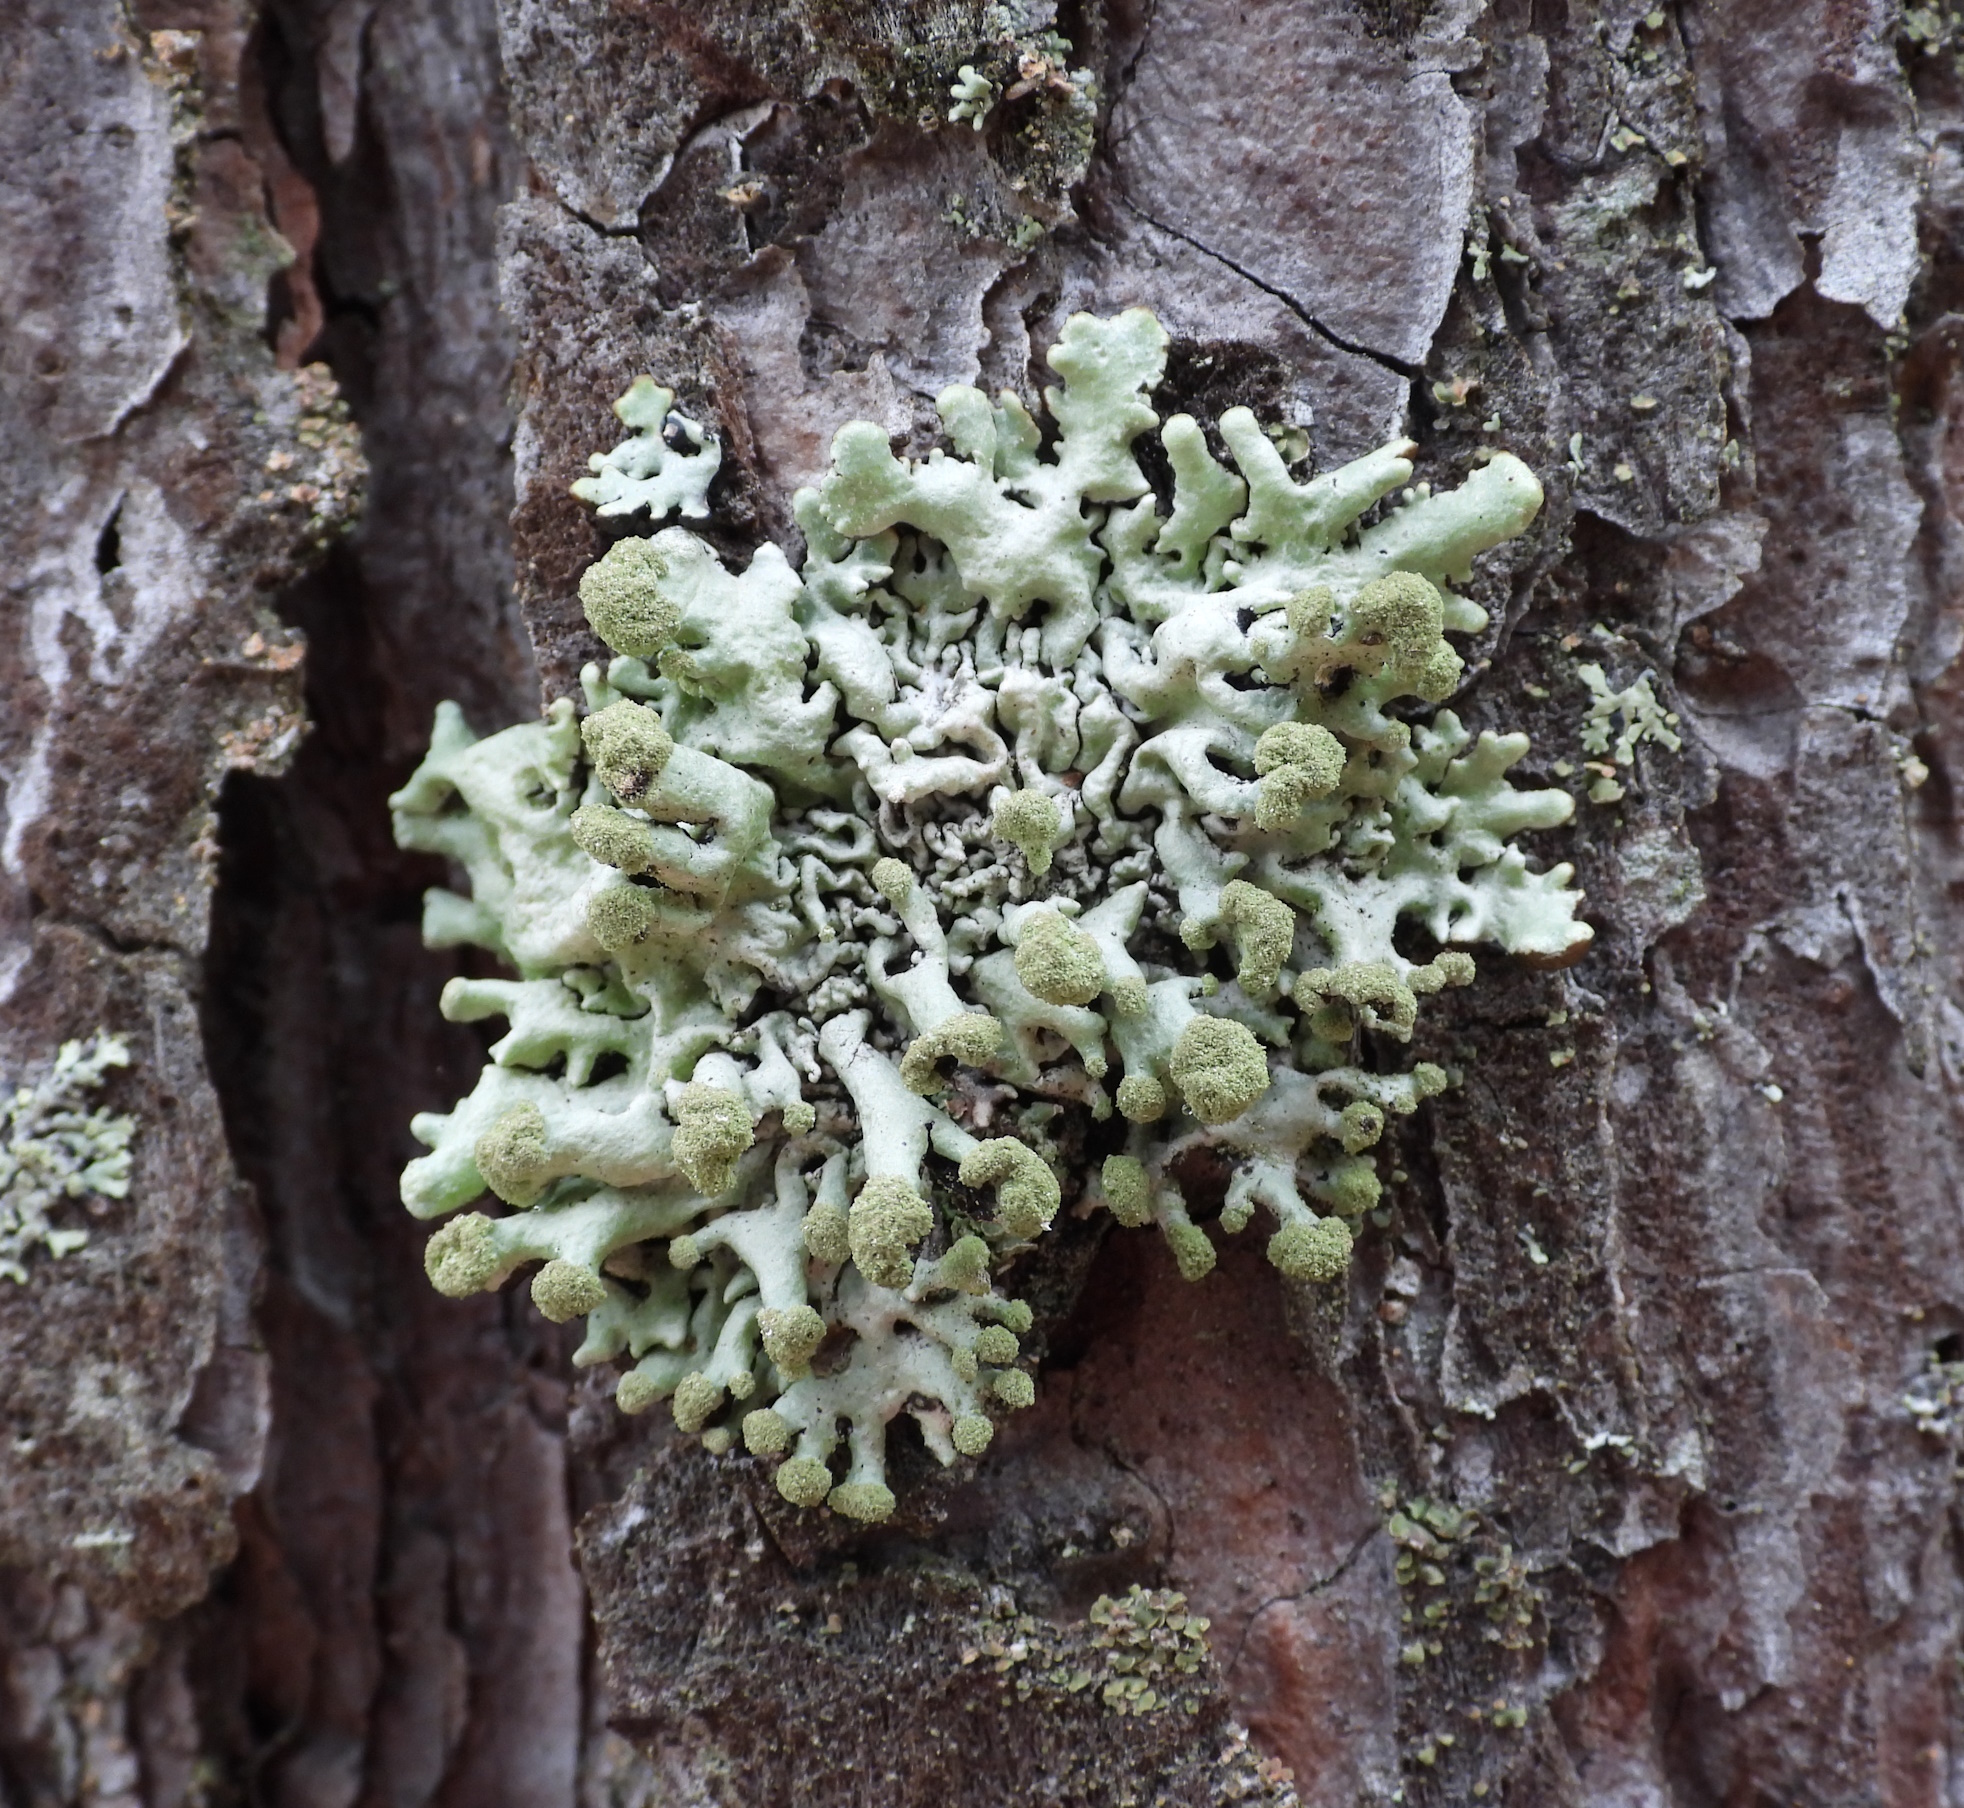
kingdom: Fungi
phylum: Ascomycota
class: Lecanoromycetes
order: Lecanorales
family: Parmeliaceae
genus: Hypogymnia
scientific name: Hypogymnia tubulosa
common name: Powder-headed tube lichen
